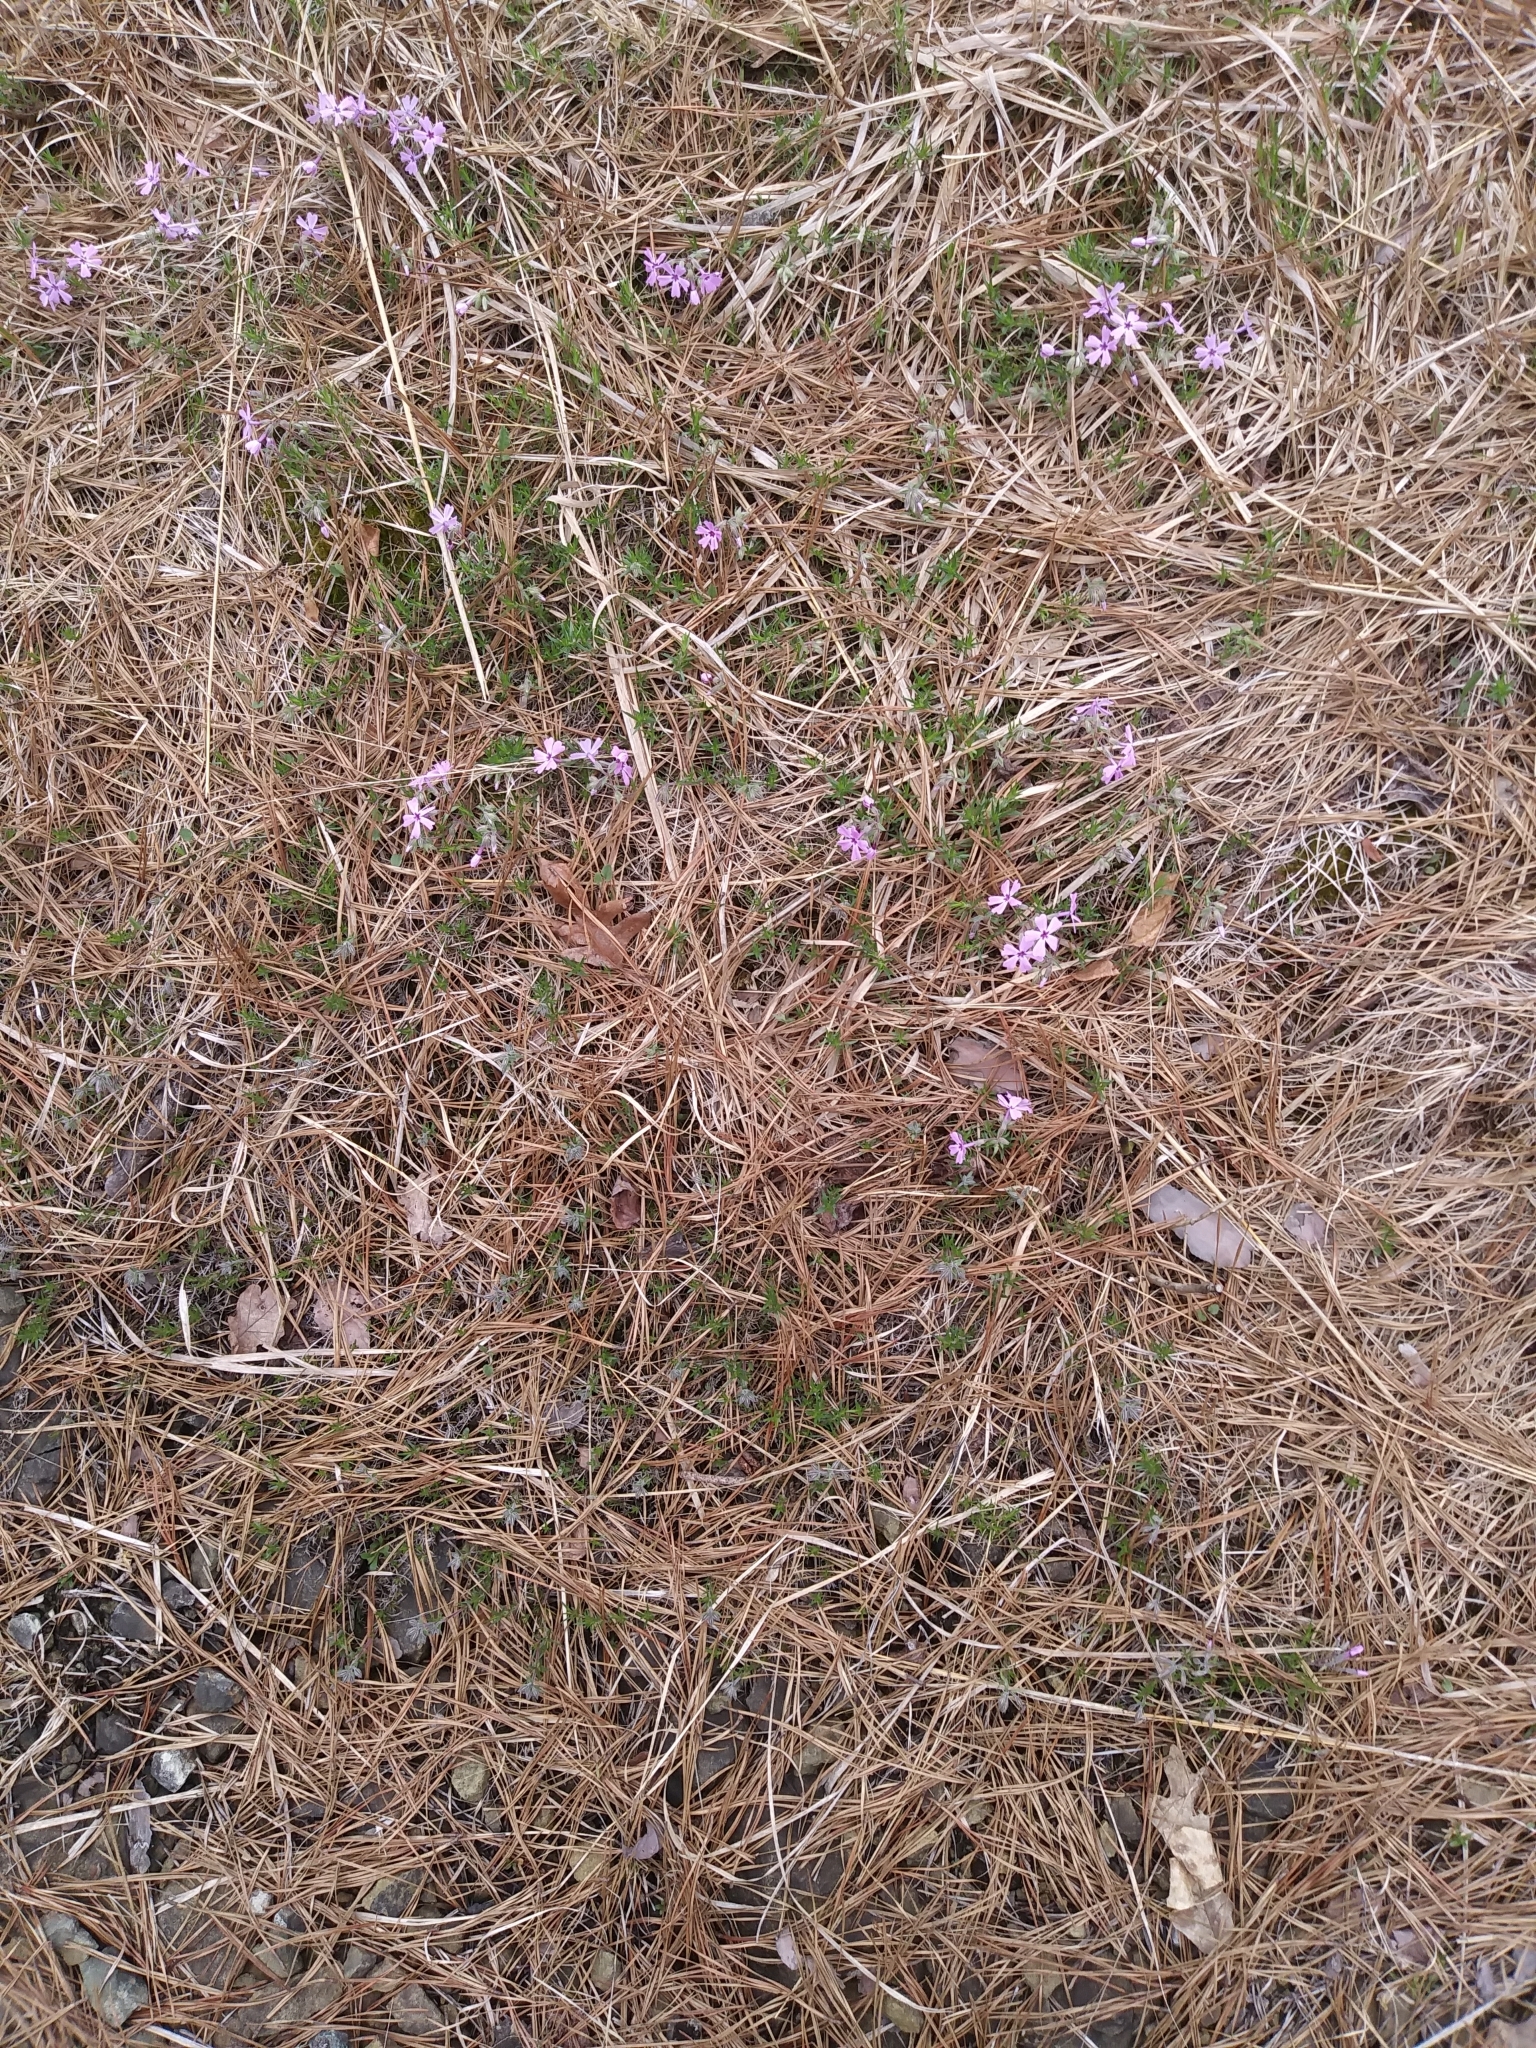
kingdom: Plantae
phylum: Tracheophyta
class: Magnoliopsida
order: Ericales
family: Polemoniaceae
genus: Phlox
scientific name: Phlox subulata
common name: Moss phlox
